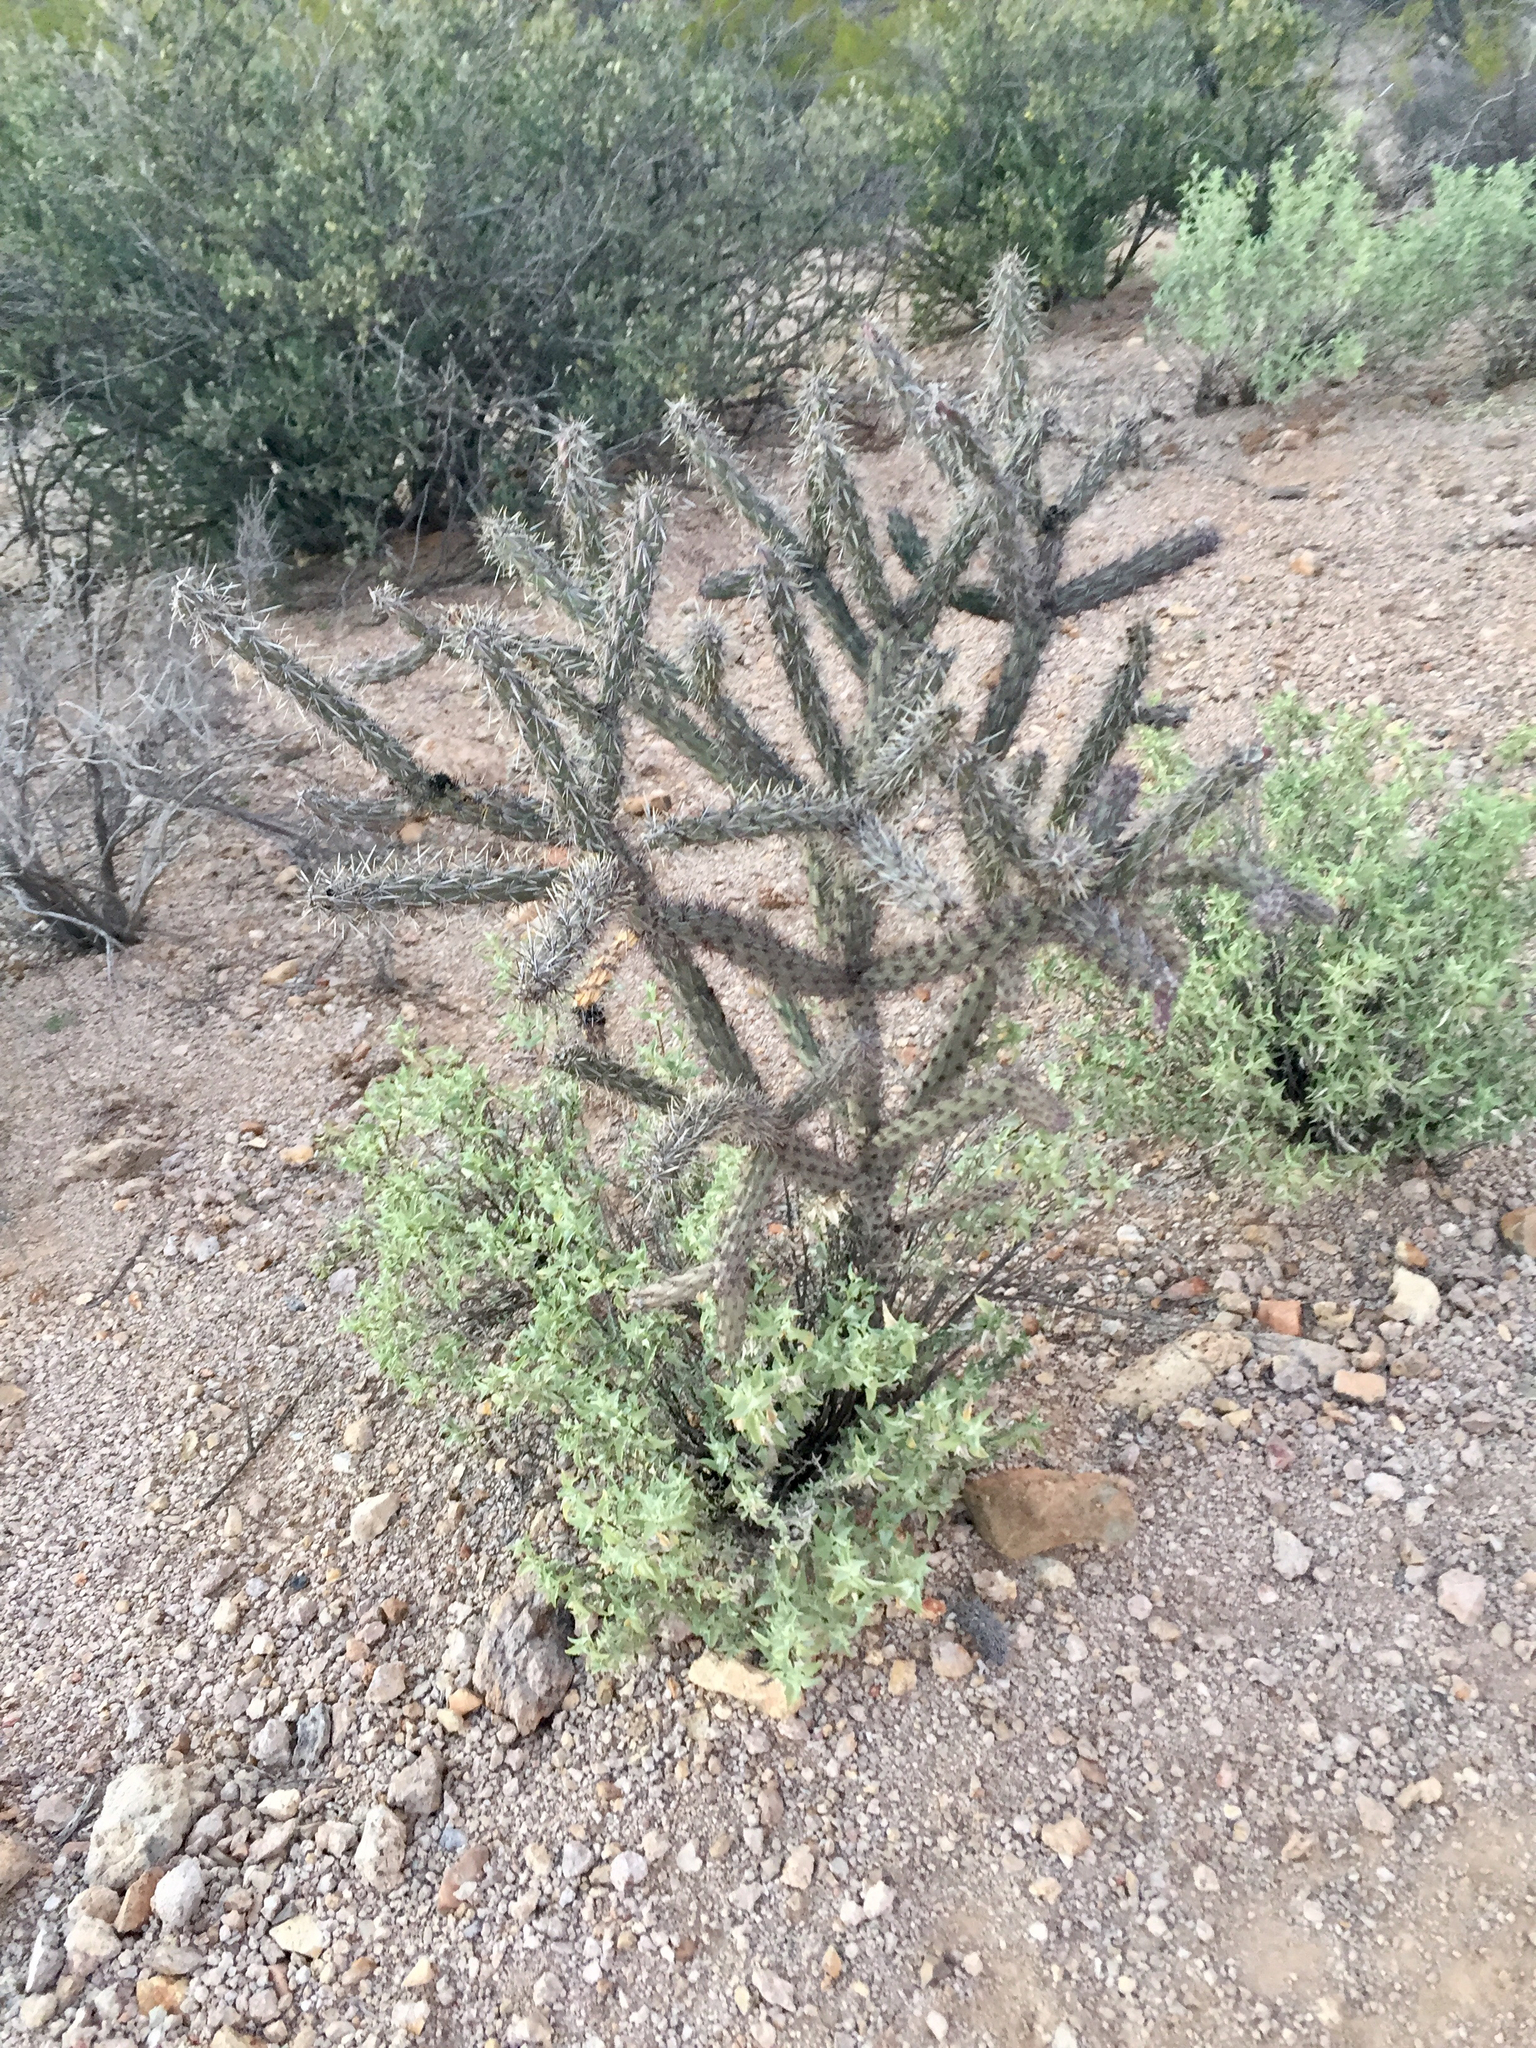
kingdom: Plantae
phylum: Tracheophyta
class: Magnoliopsida
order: Caryophyllales
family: Cactaceae
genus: Cylindropuntia
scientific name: Cylindropuntia acanthocarpa
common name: Buckhorn cholla
